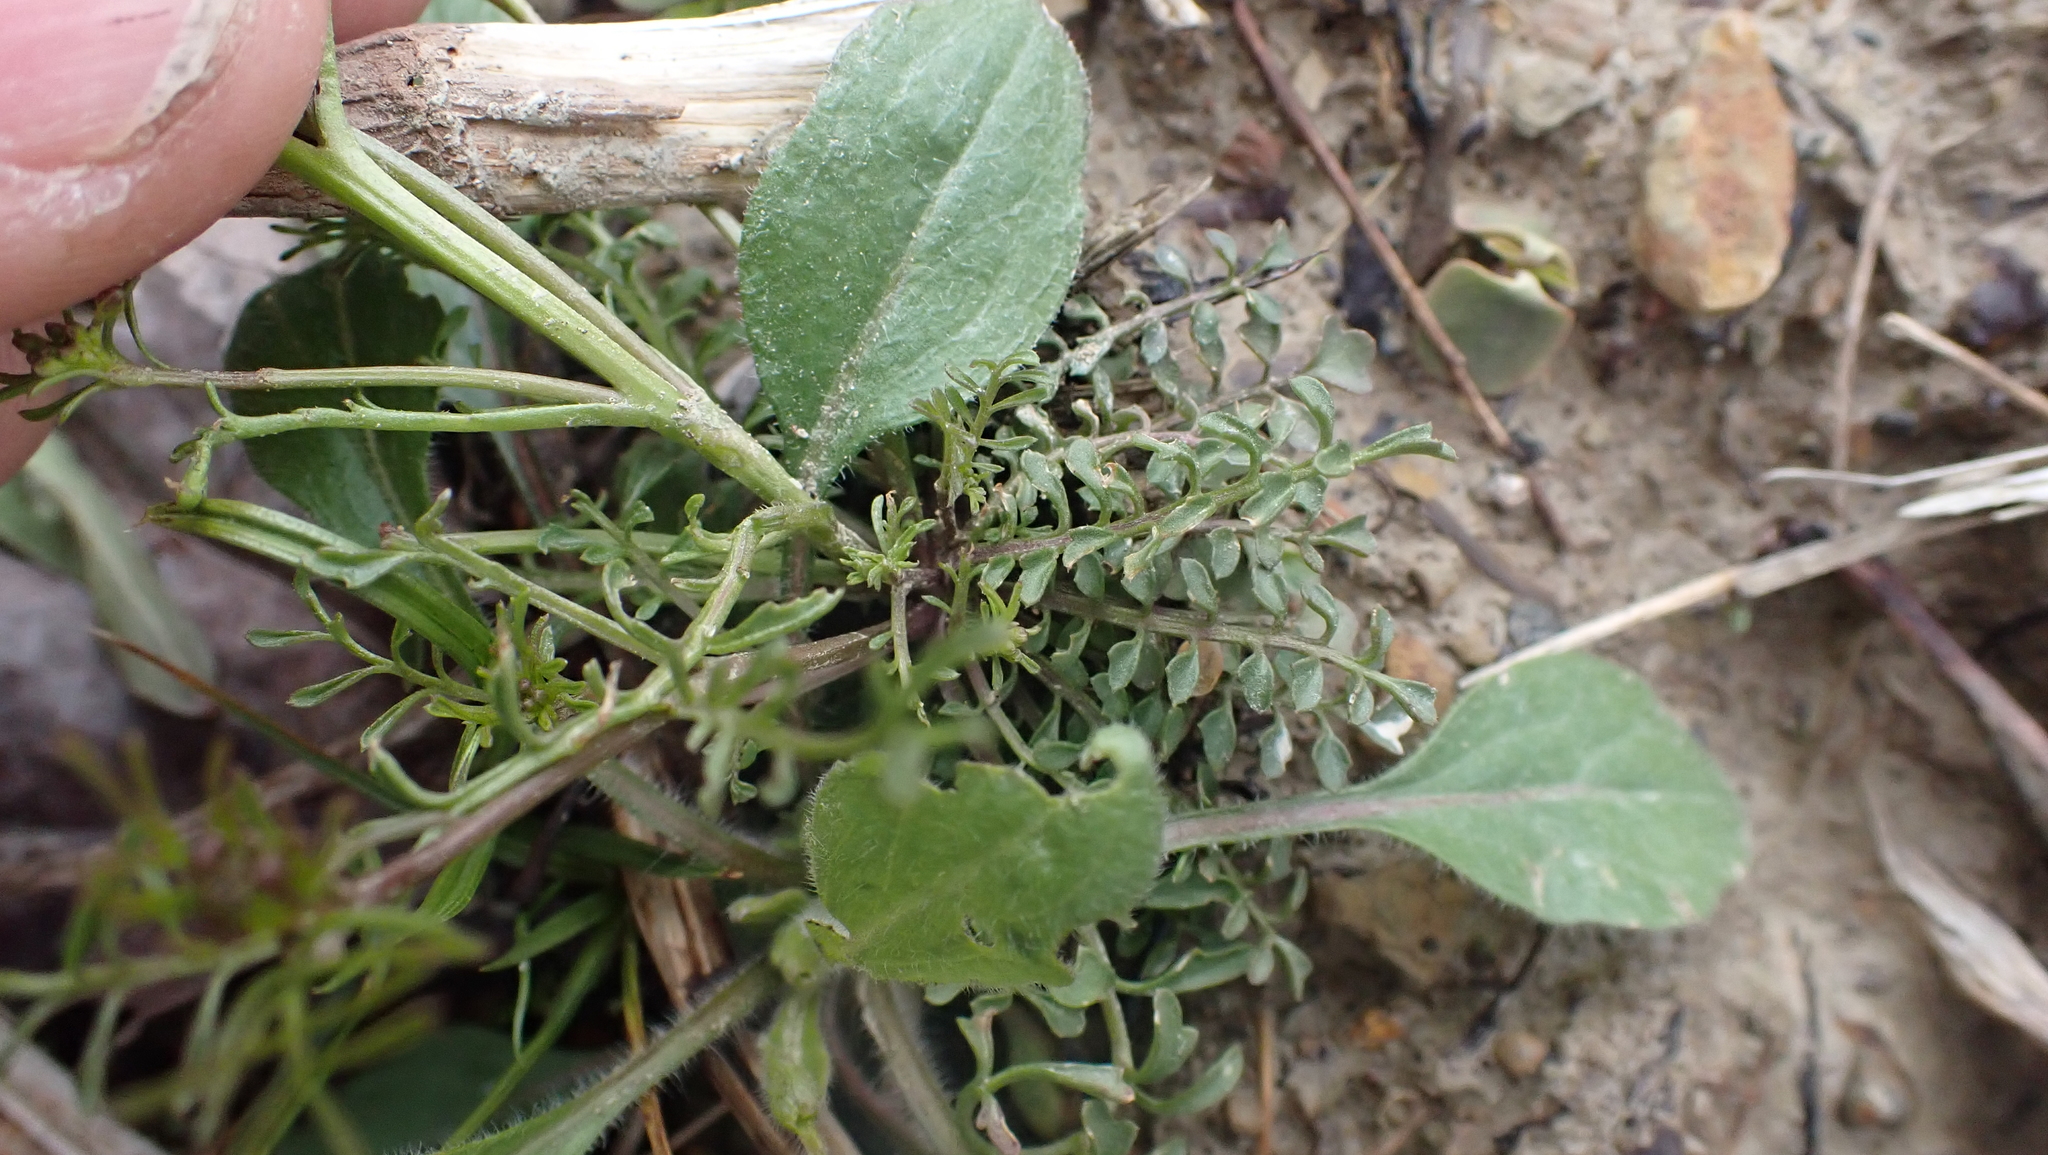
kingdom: Plantae
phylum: Tracheophyta
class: Magnoliopsida
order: Brassicales
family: Brassicaceae
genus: Cardamine
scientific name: Cardamine parviflora
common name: Sand bittercress
